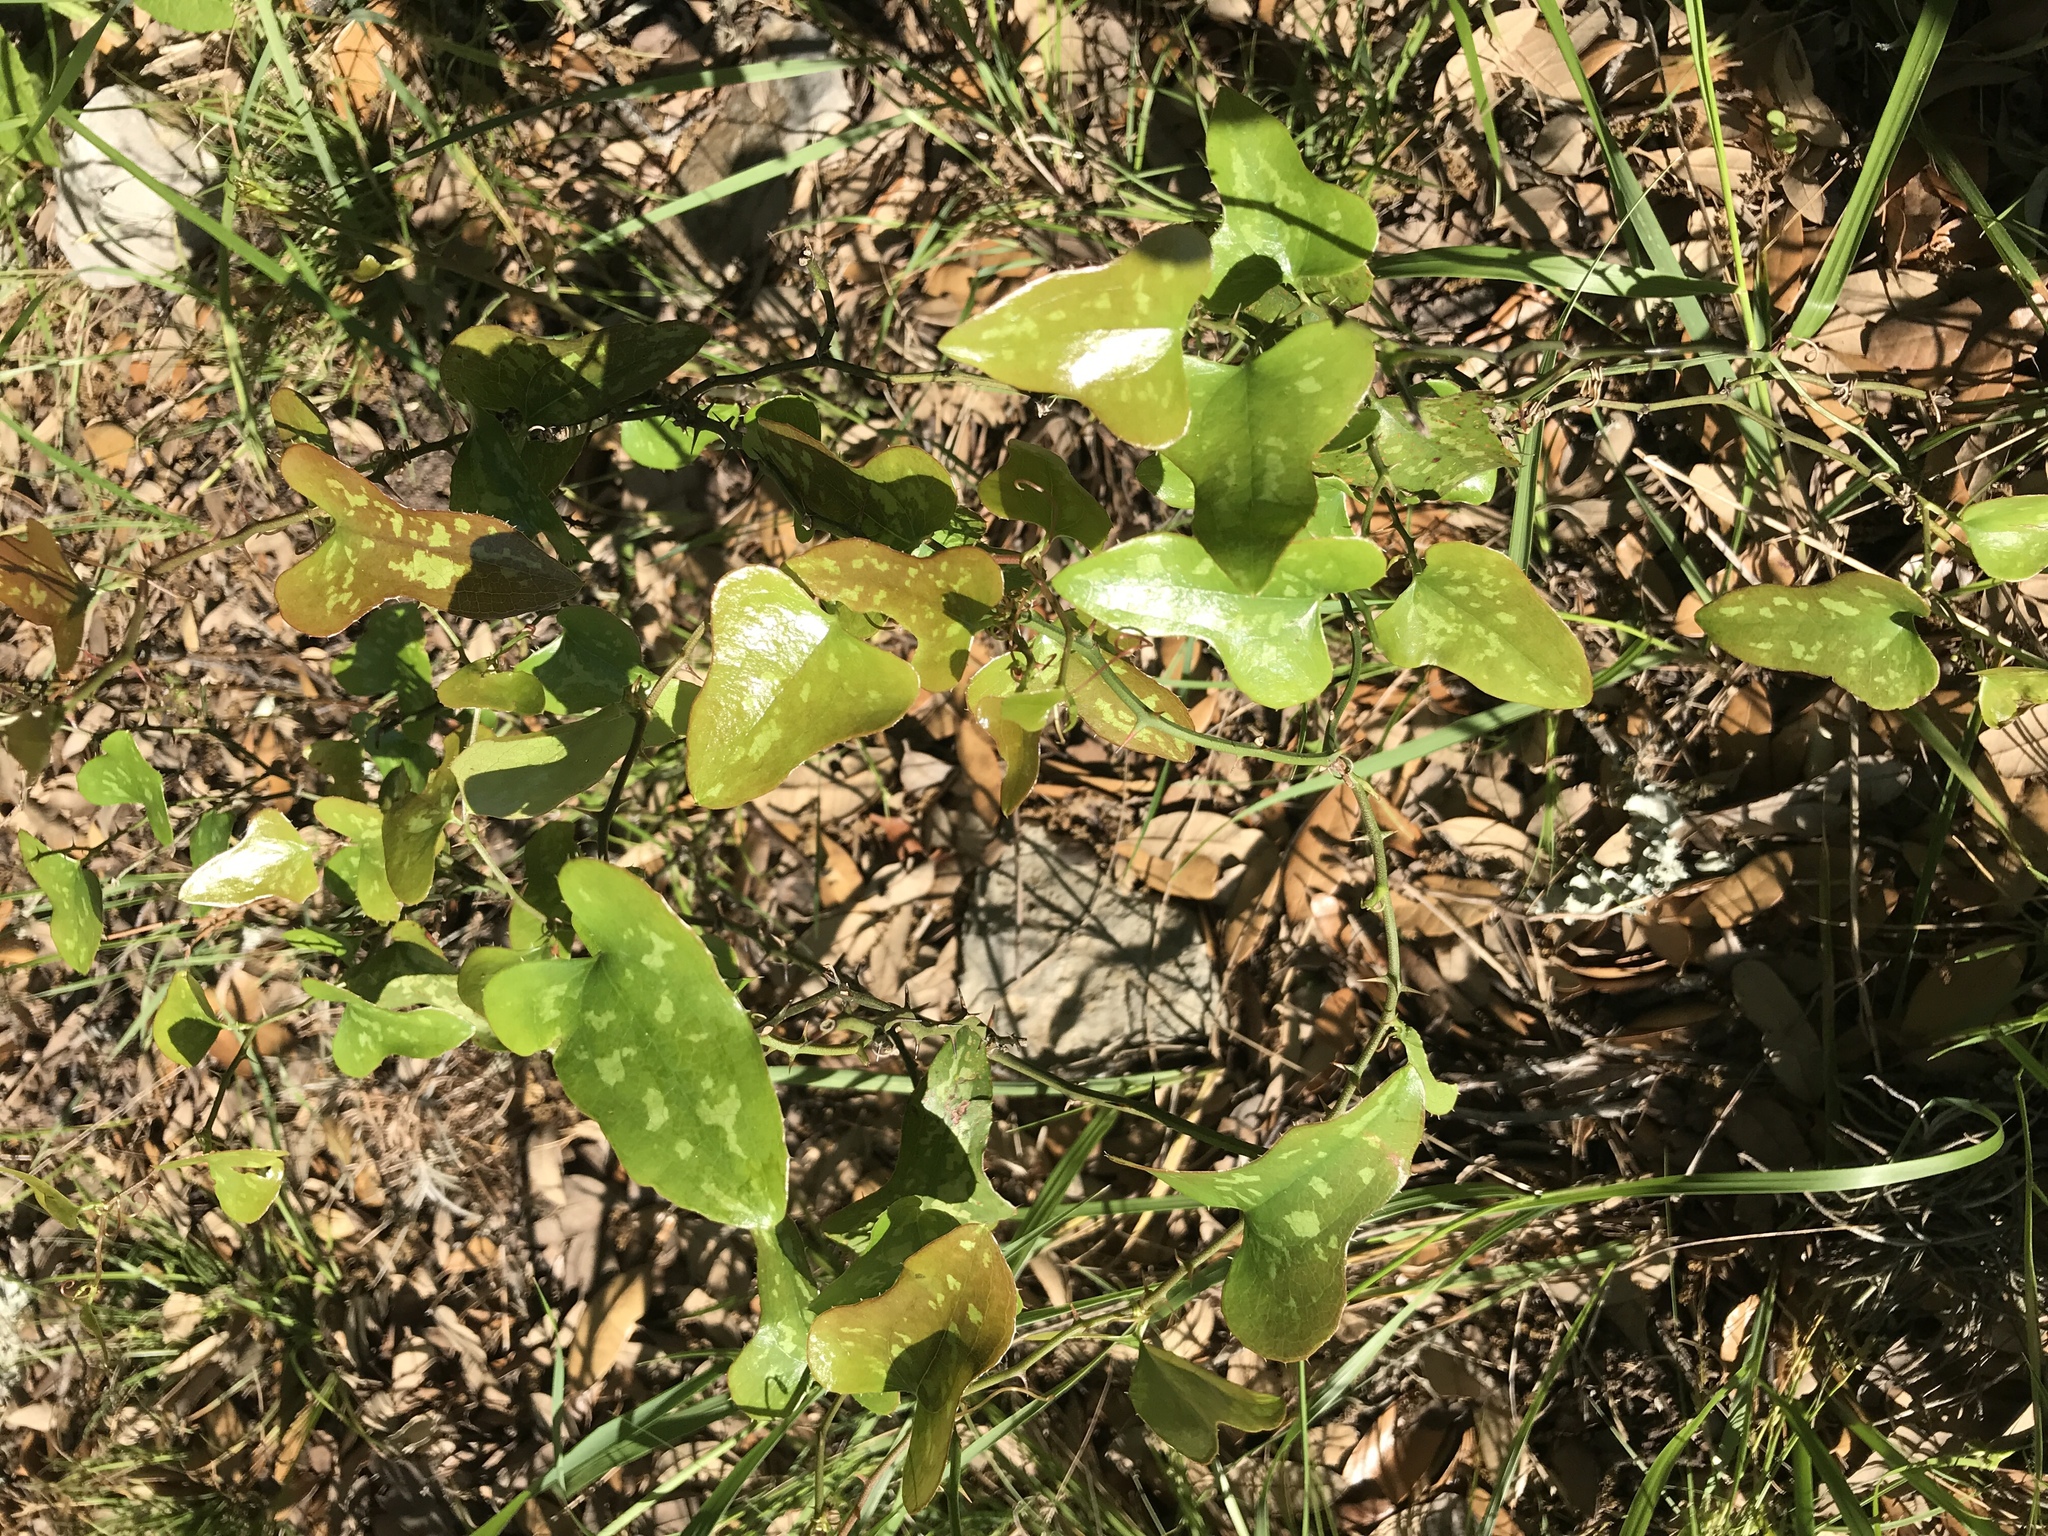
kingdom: Plantae
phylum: Tracheophyta
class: Liliopsida
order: Liliales
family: Smilacaceae
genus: Smilax
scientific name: Smilax bona-nox
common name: Catbrier
